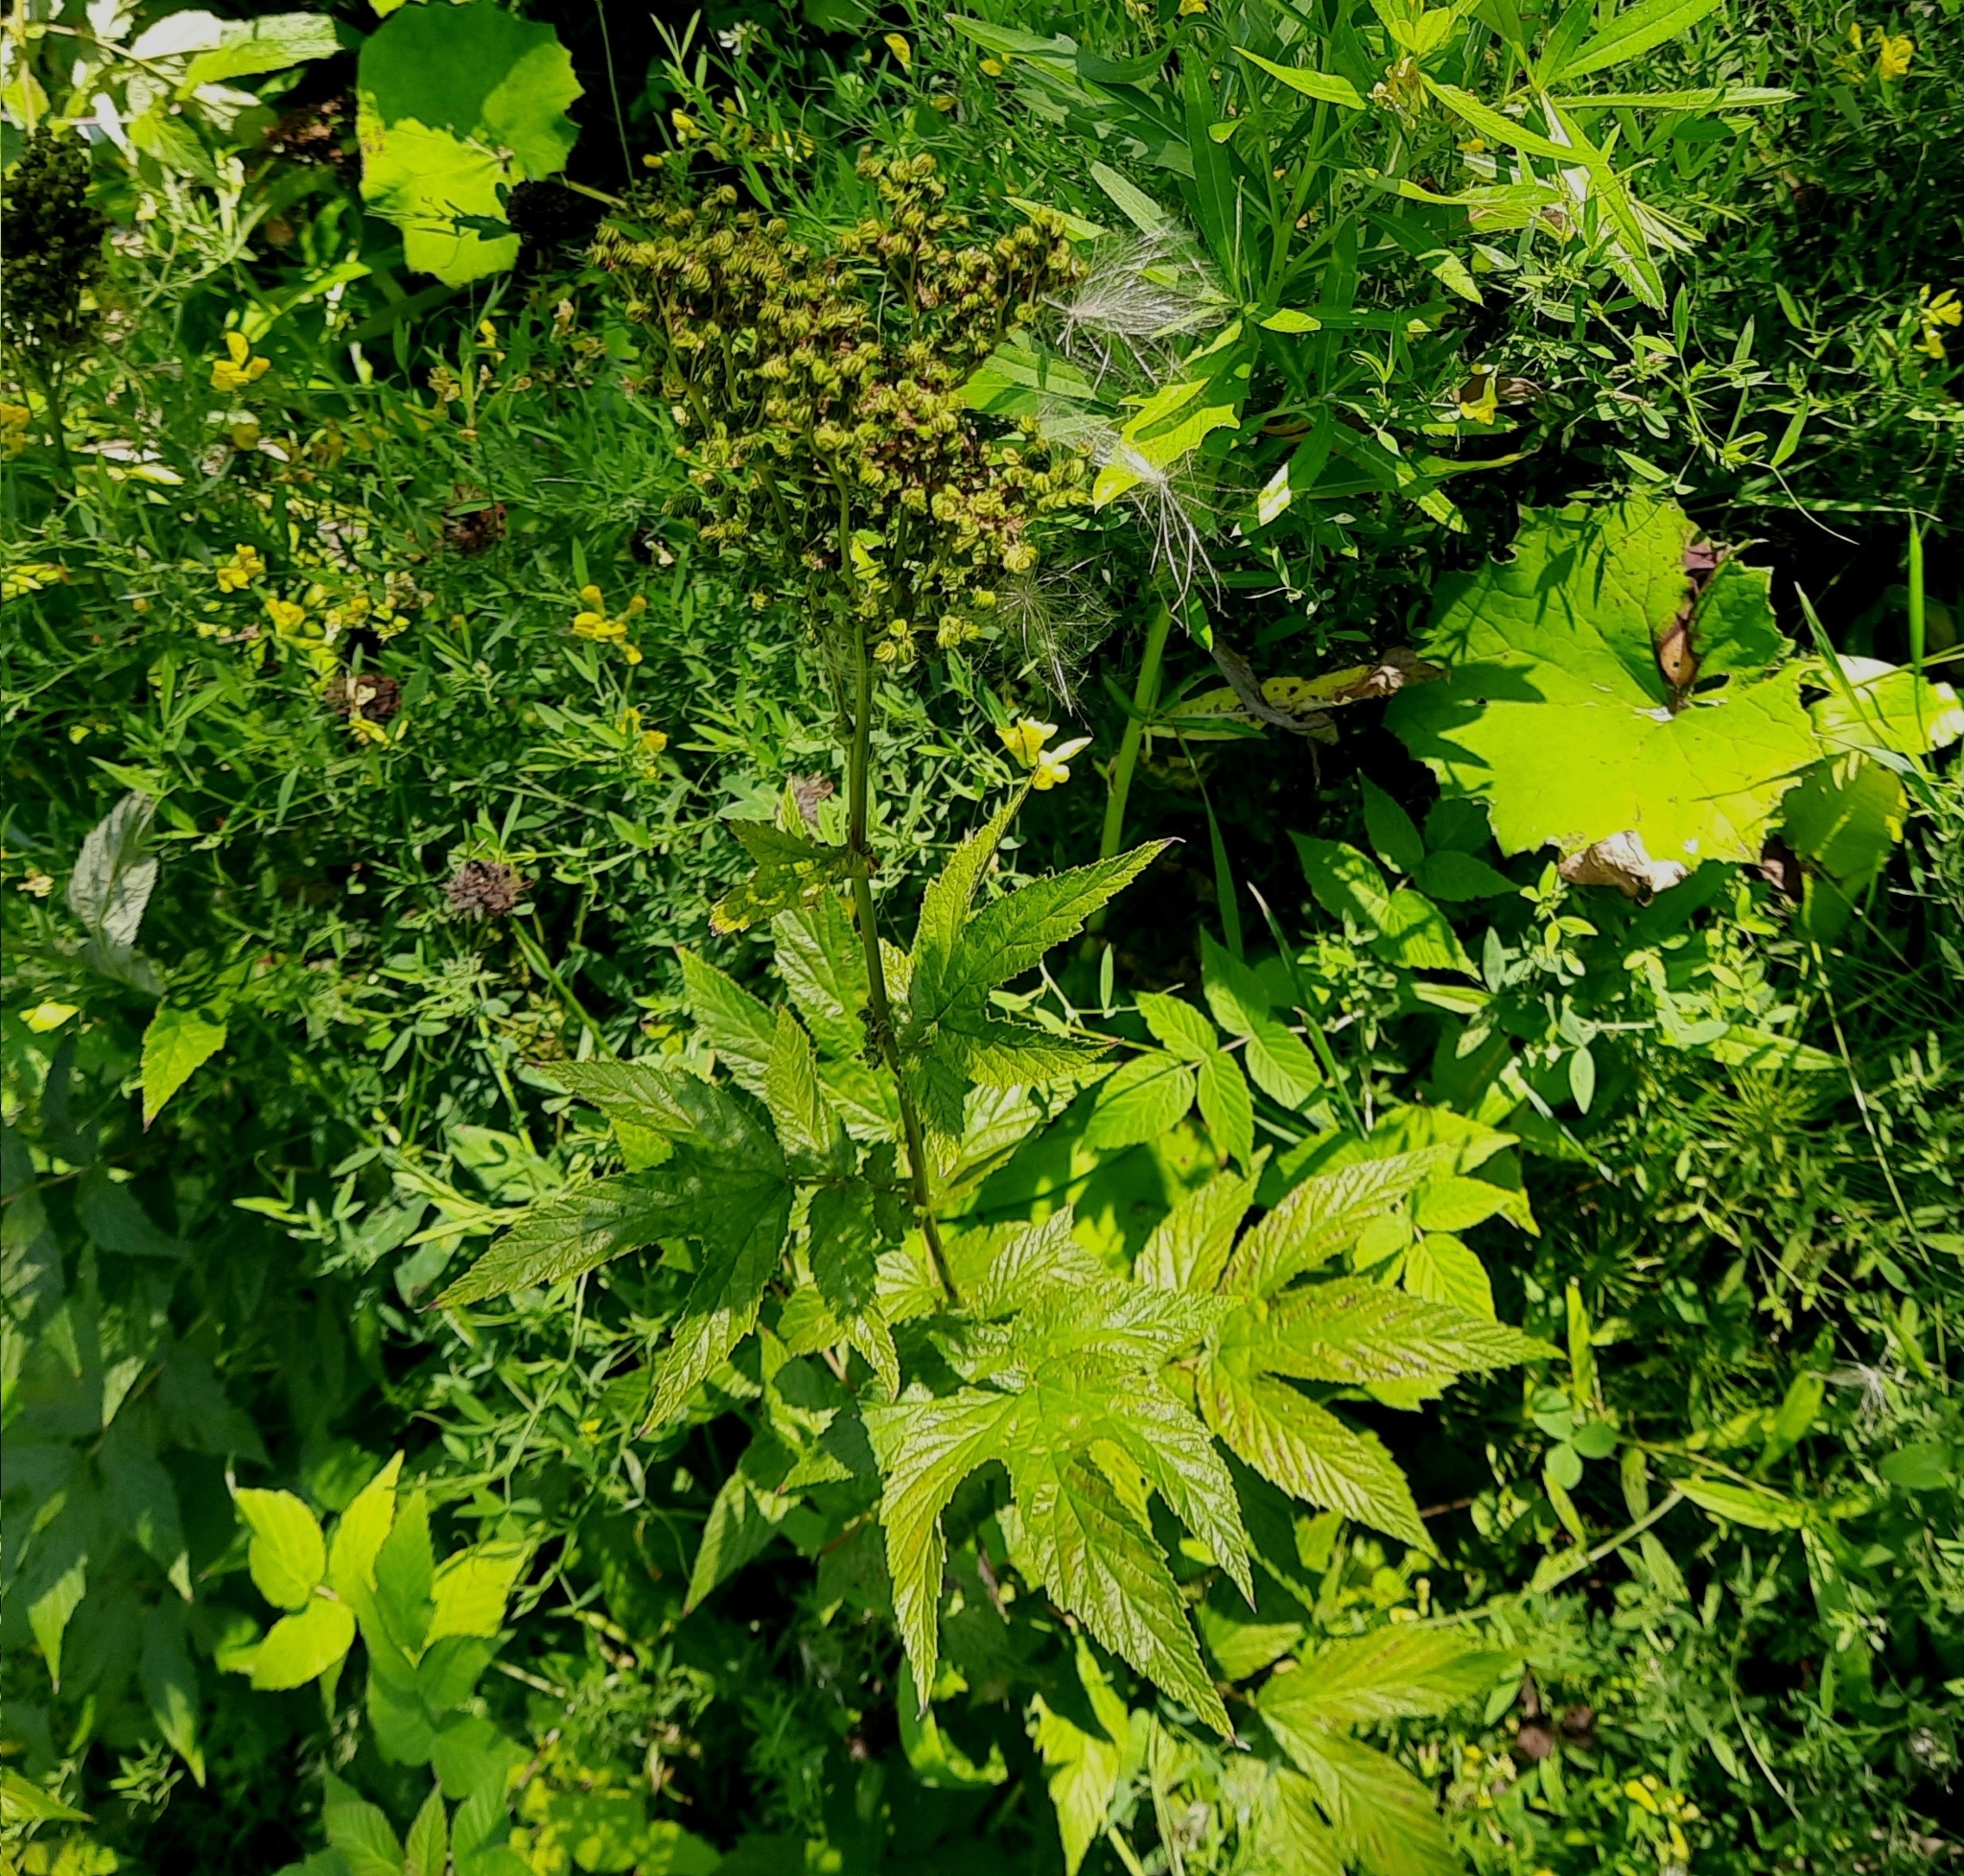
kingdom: Plantae
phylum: Tracheophyta
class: Magnoliopsida
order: Rosales
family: Rosaceae
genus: Filipendula
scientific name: Filipendula ulmaria
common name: Meadowsweet
